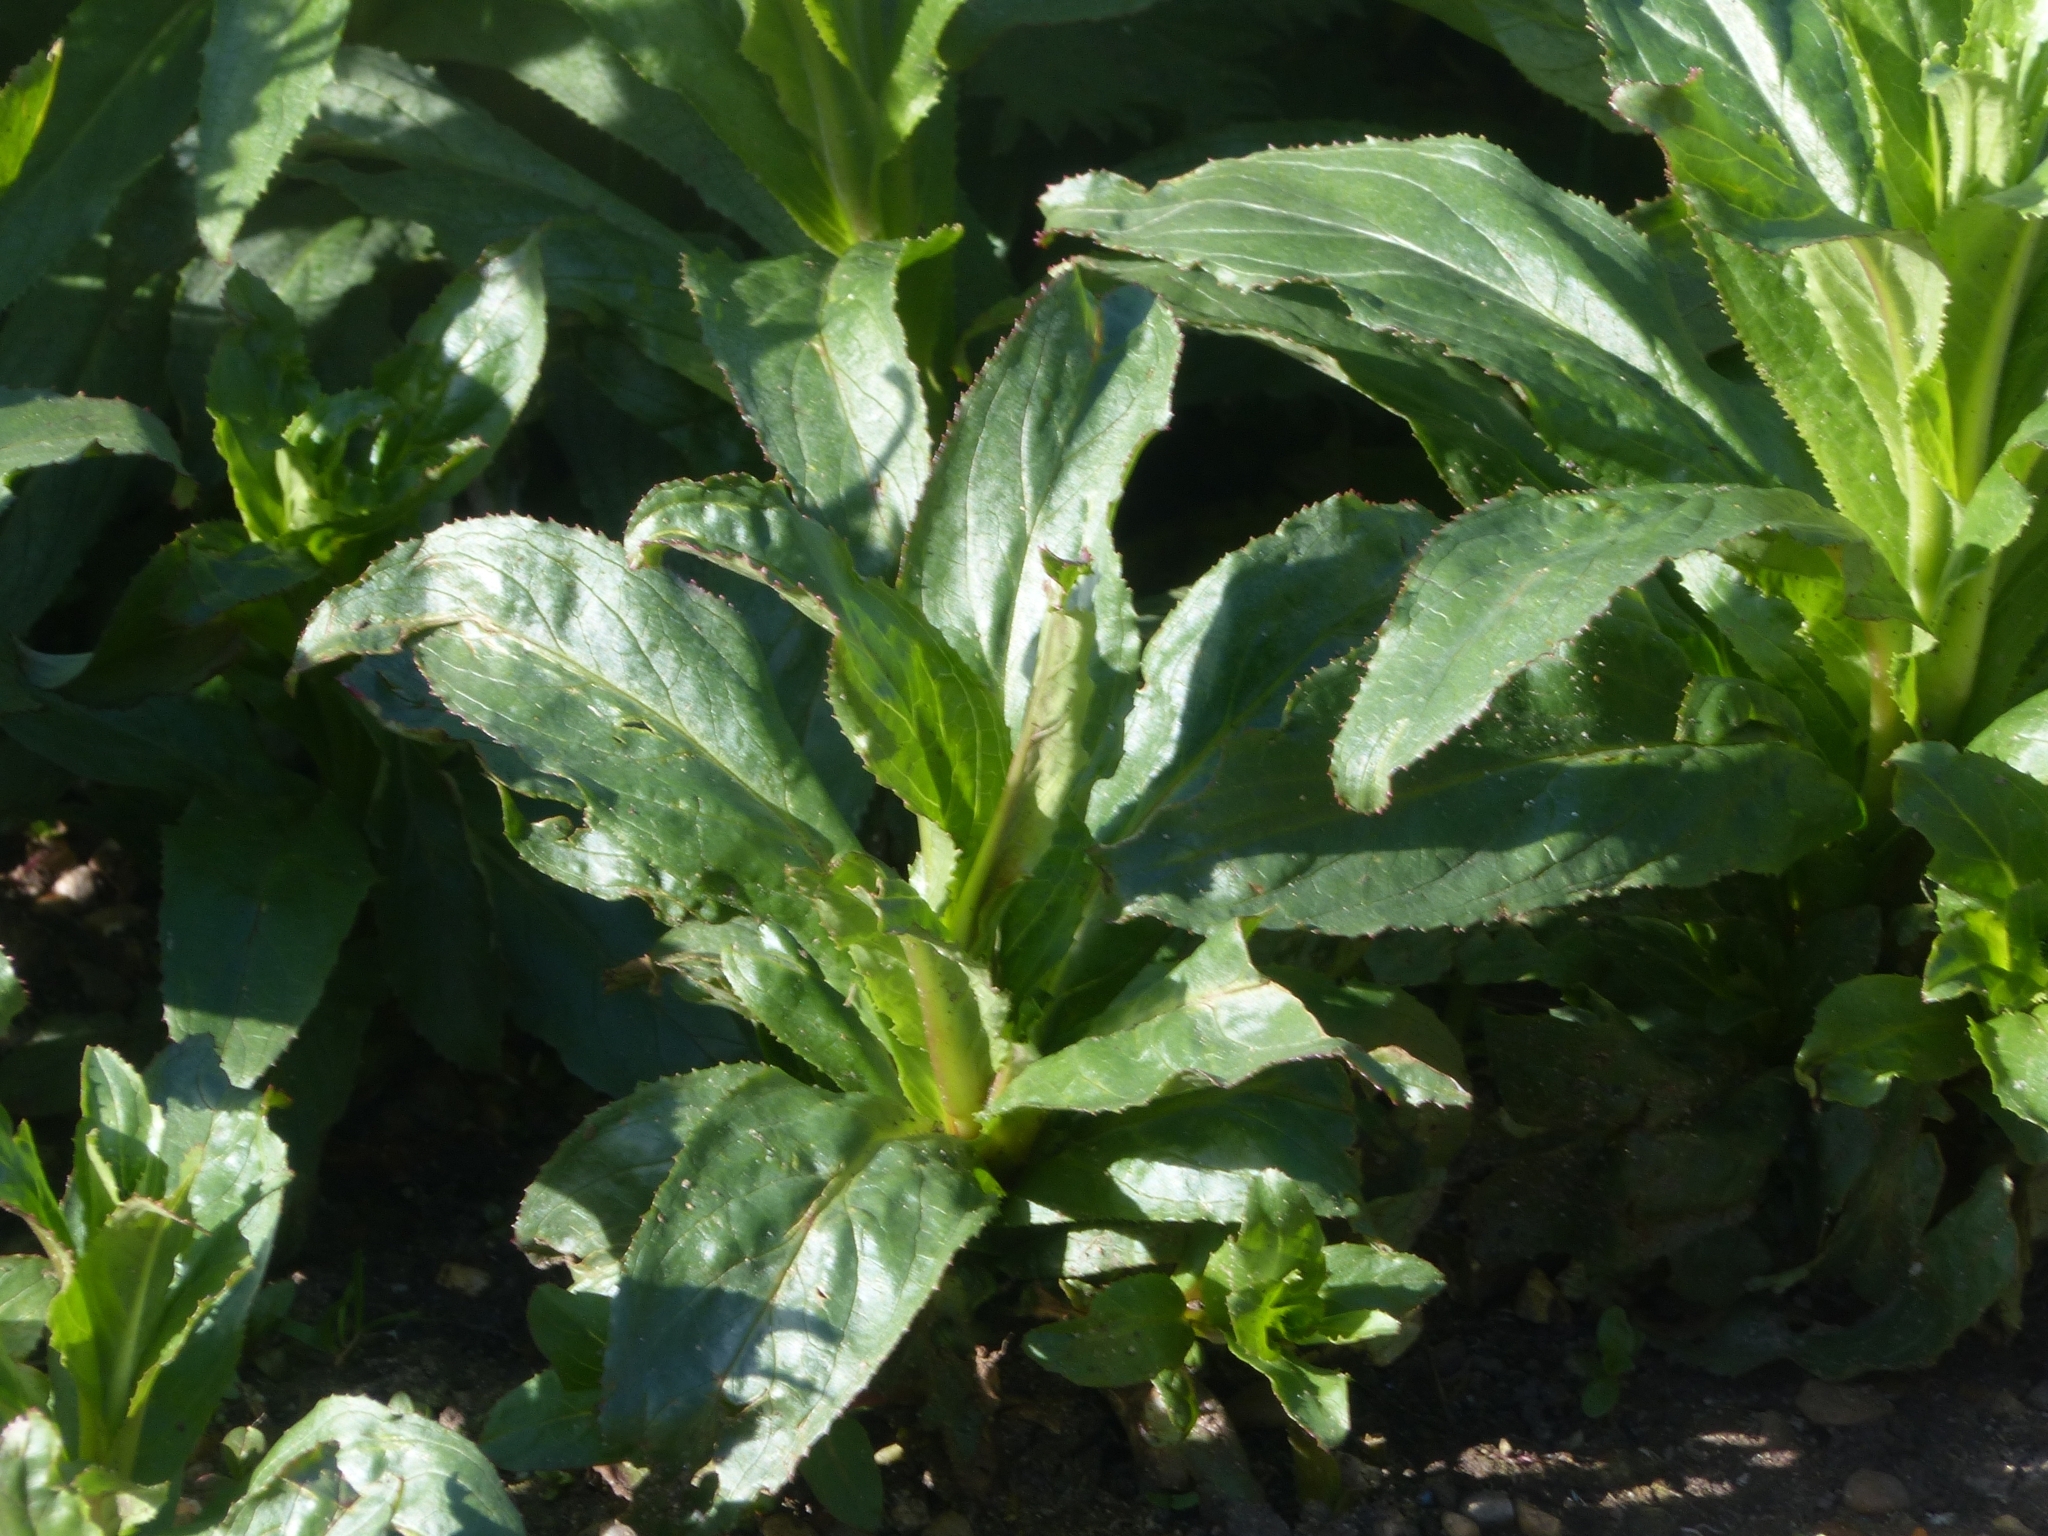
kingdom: Plantae
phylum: Tracheophyta
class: Magnoliopsida
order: Myrtales
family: Onagraceae
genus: Epilobium
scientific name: Epilobium hirsutum
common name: Great willowherb
